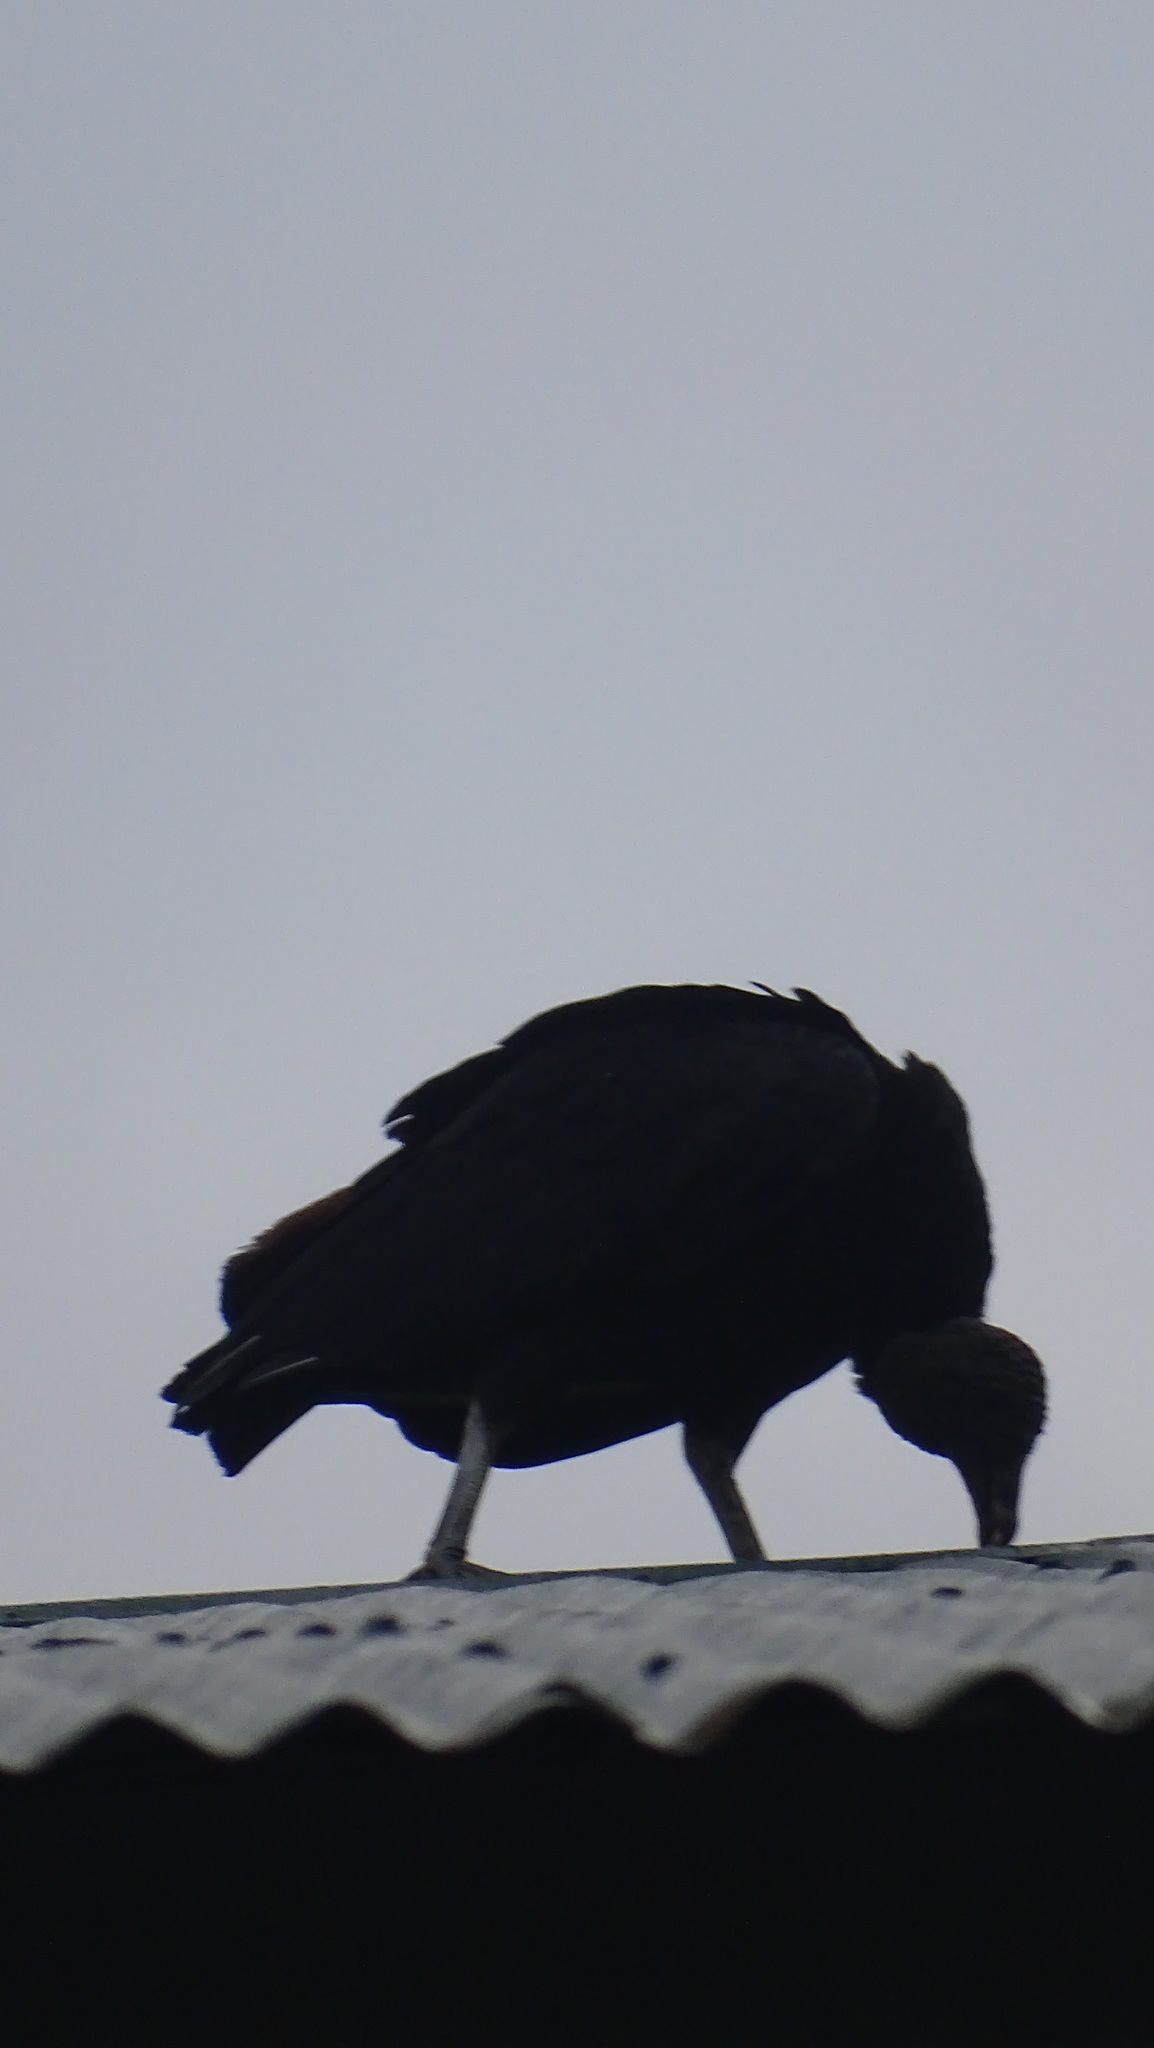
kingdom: Animalia
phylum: Chordata
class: Aves
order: Accipitriformes
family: Cathartidae
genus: Coragyps
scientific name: Coragyps atratus
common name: Black vulture
